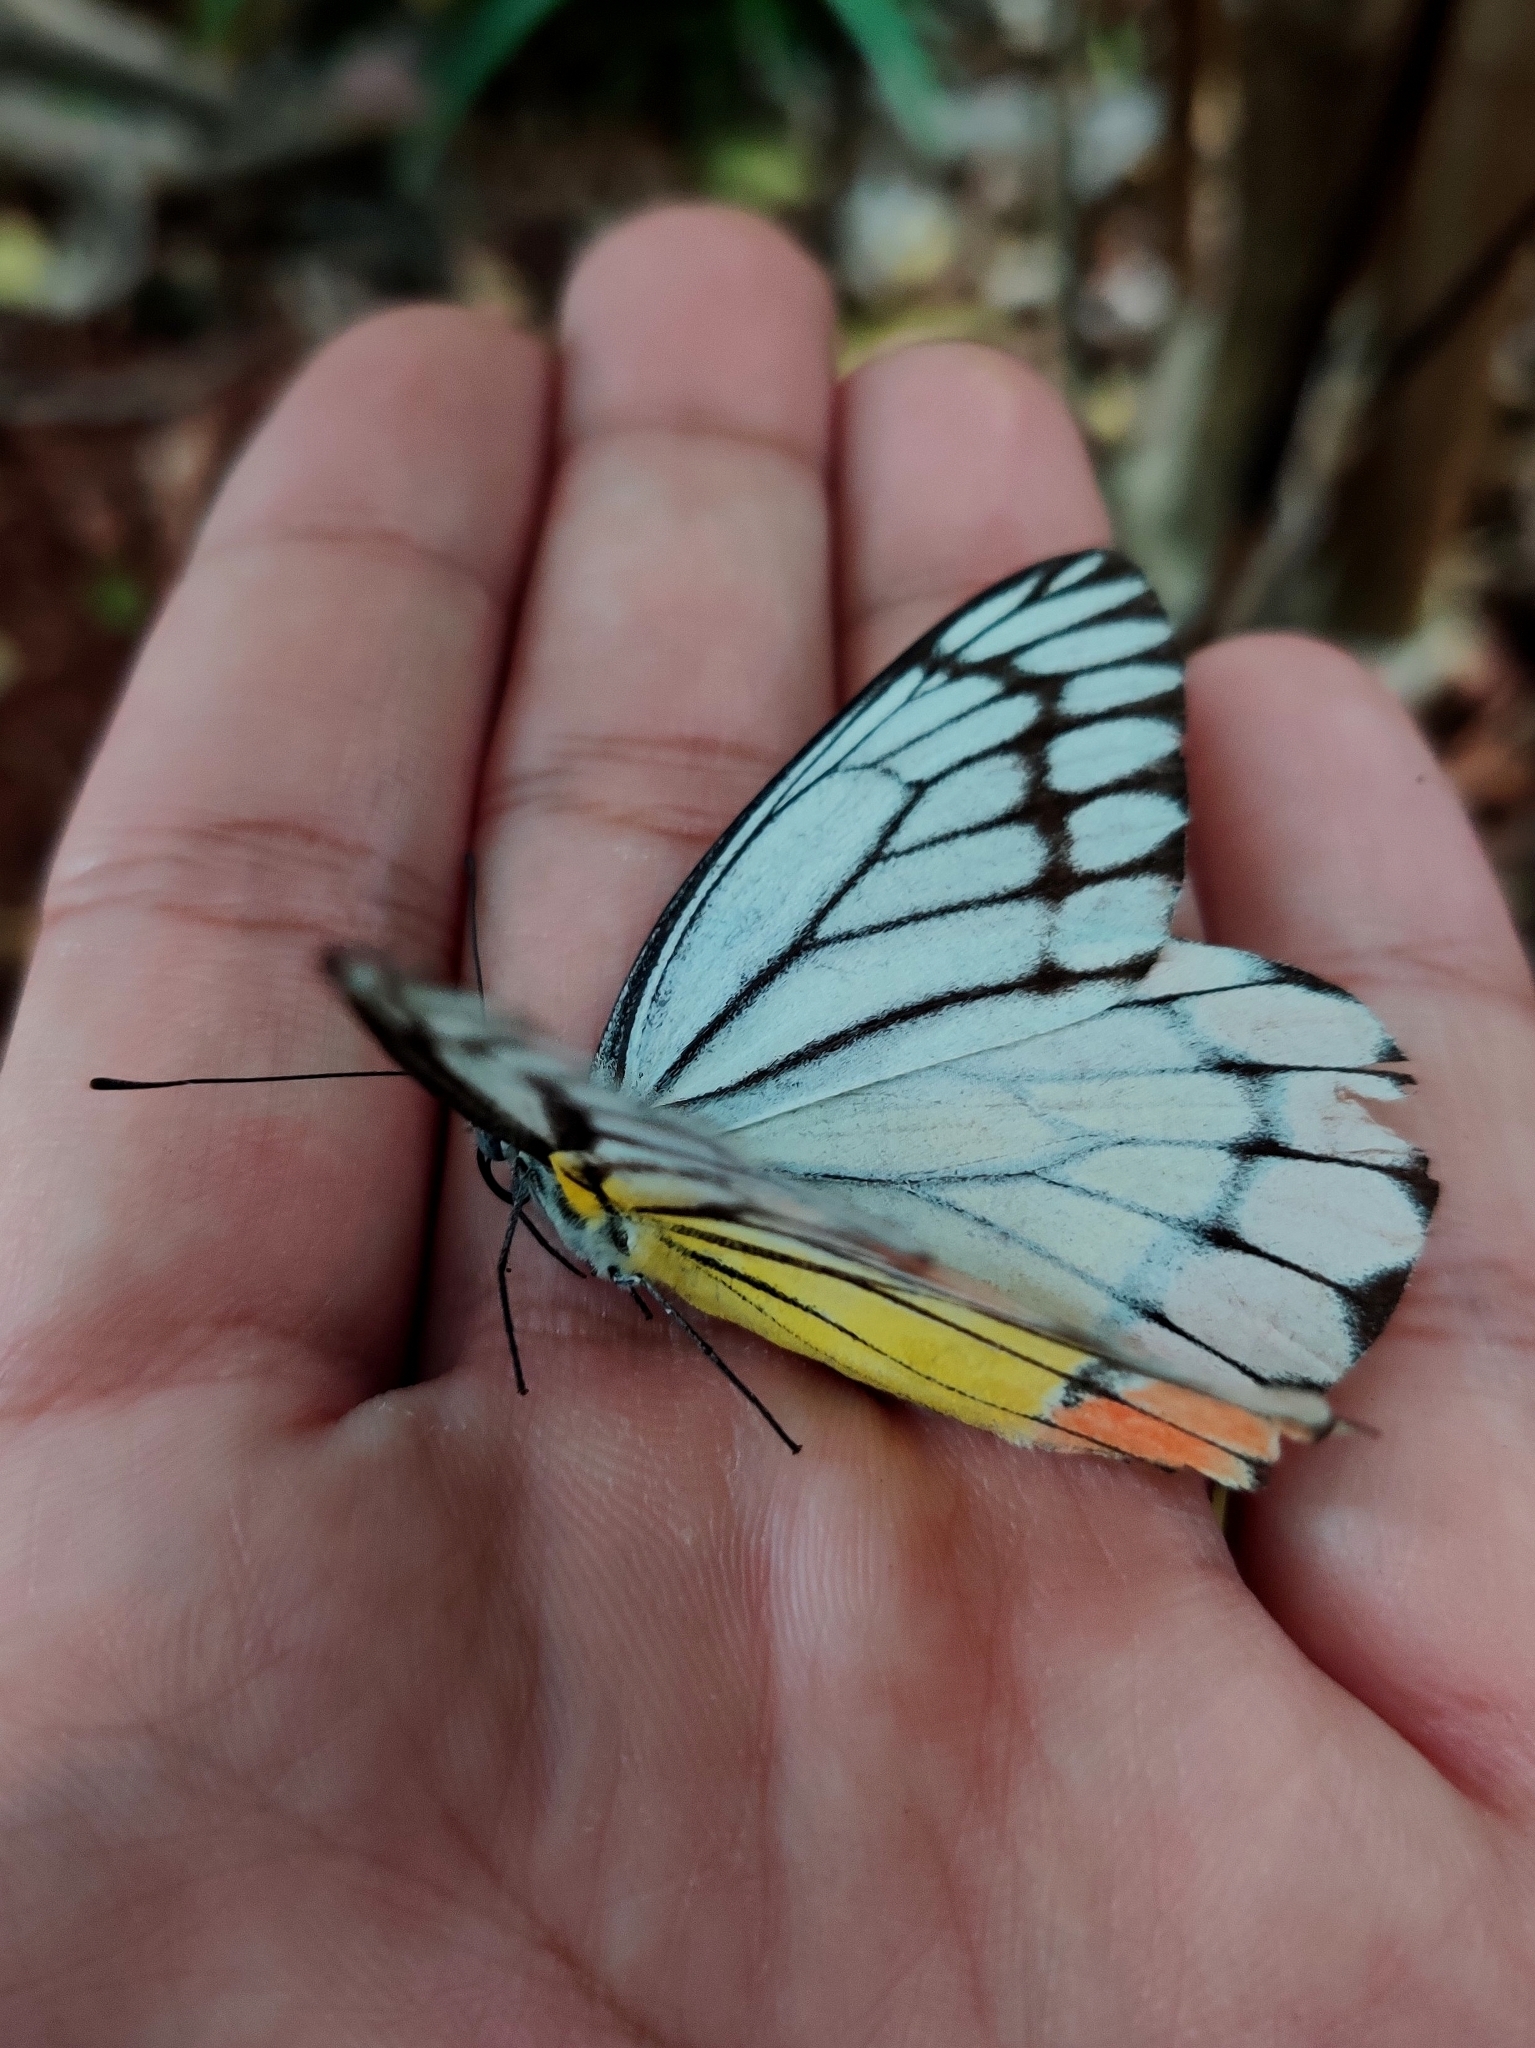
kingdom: Animalia
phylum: Arthropoda
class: Insecta
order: Lepidoptera
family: Pieridae
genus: Delias
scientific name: Delias eucharis
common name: Common jezebel
